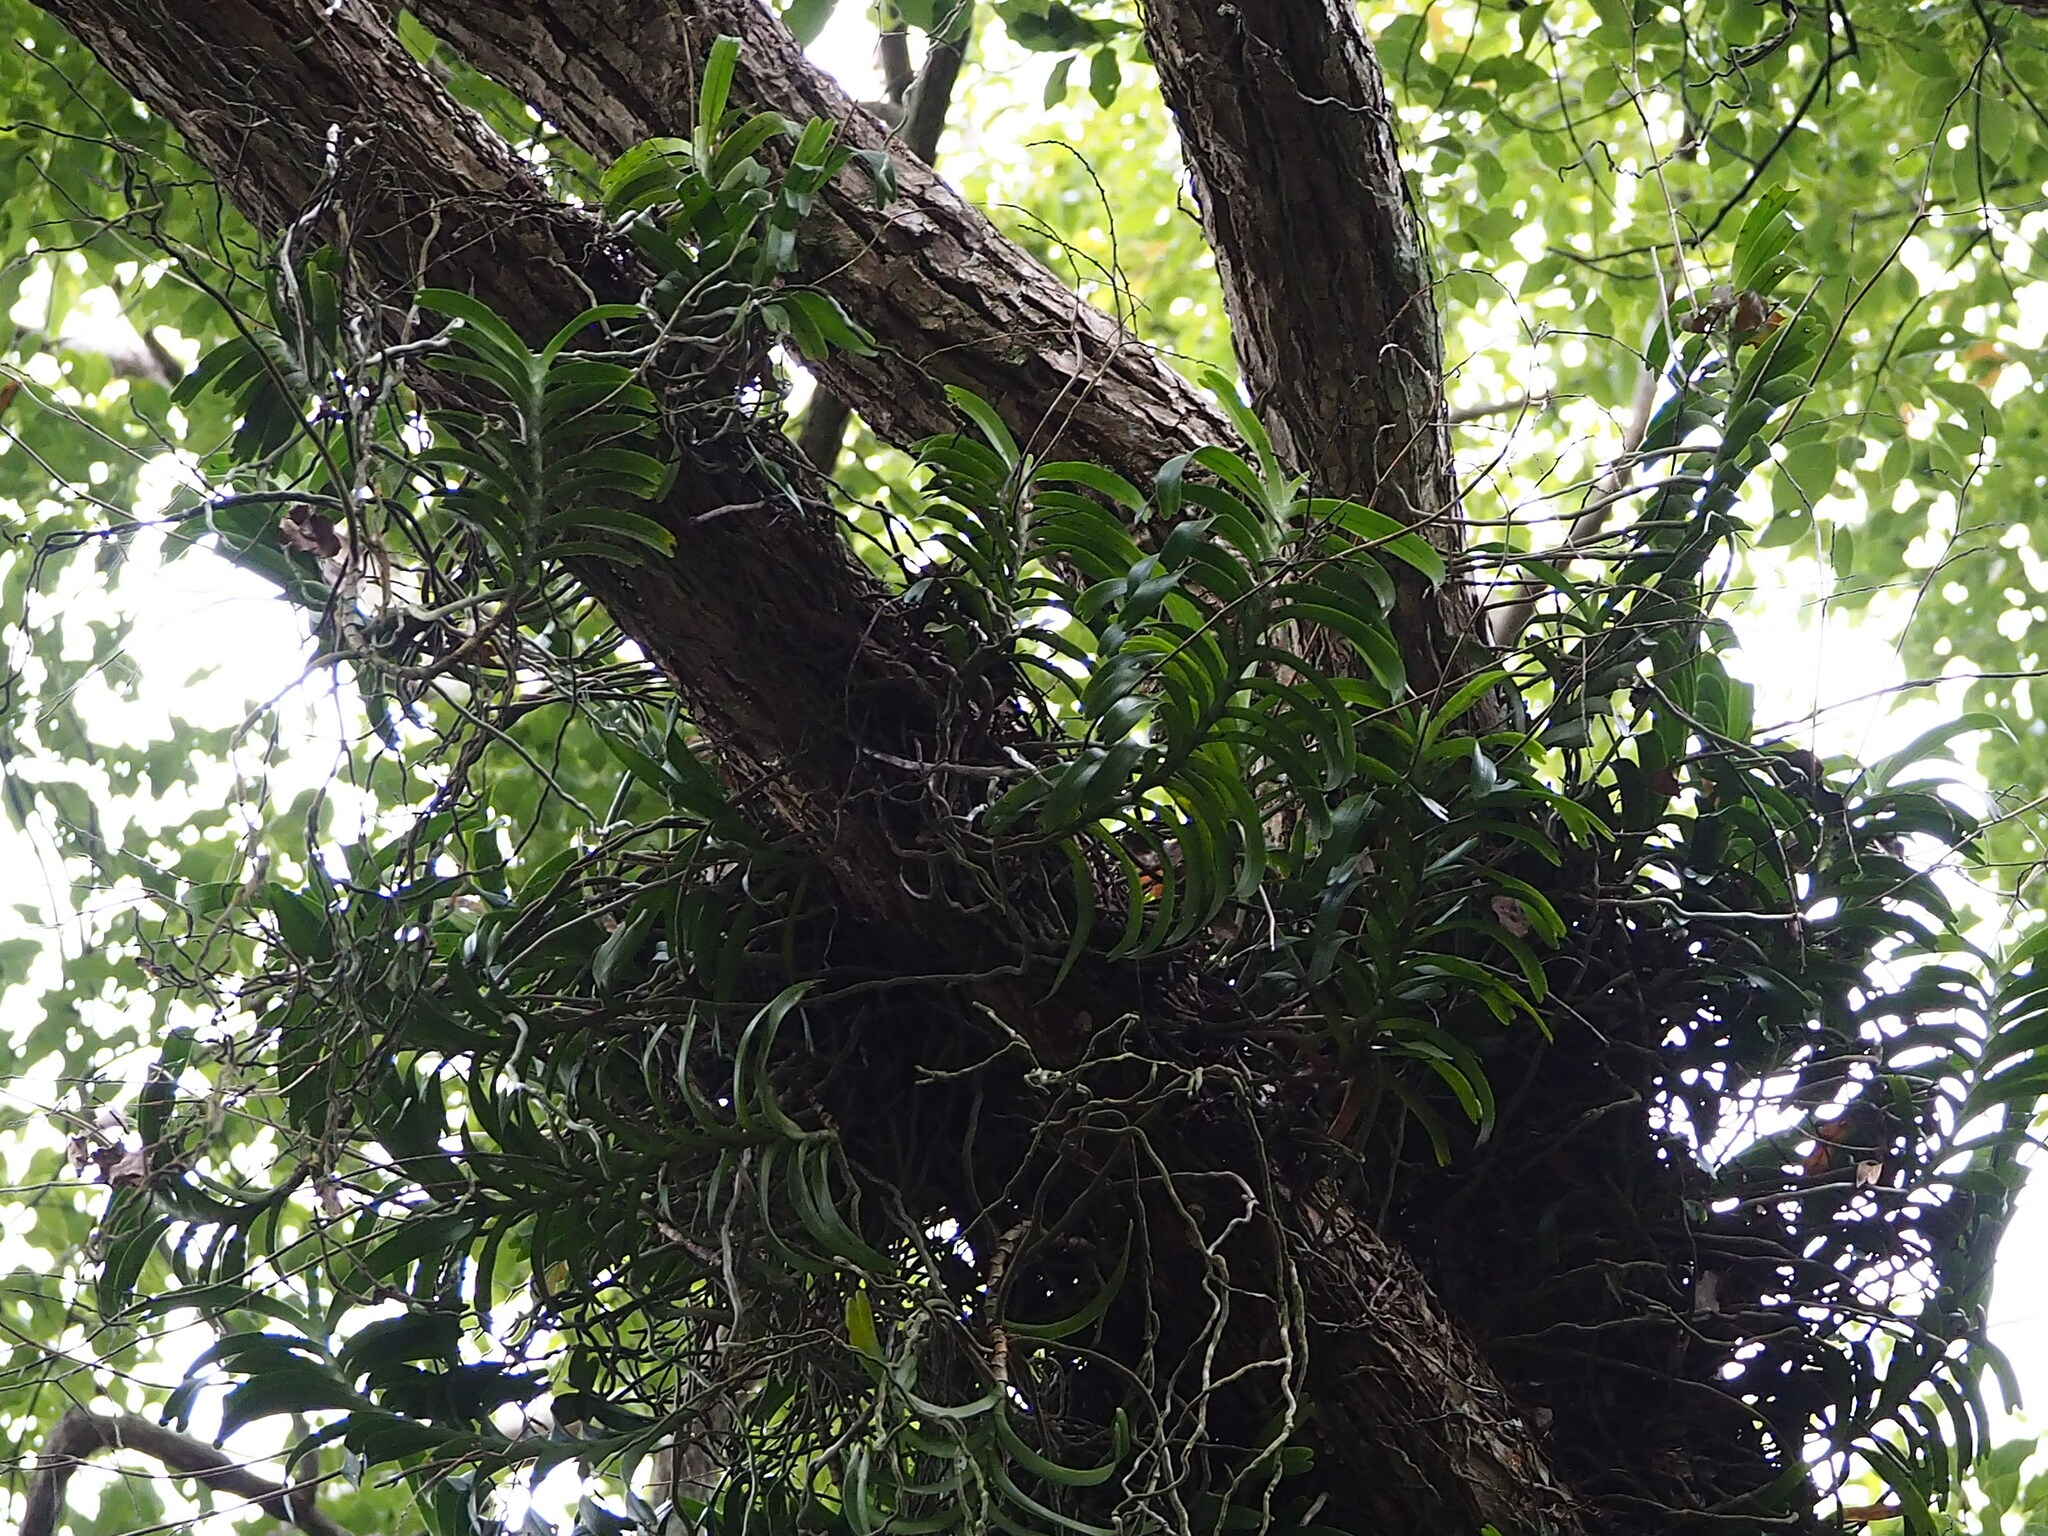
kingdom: Plantae
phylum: Tracheophyta
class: Liliopsida
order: Asparagales
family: Orchidaceae
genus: Cleisostoma
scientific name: Cleisostoma paniculatum
